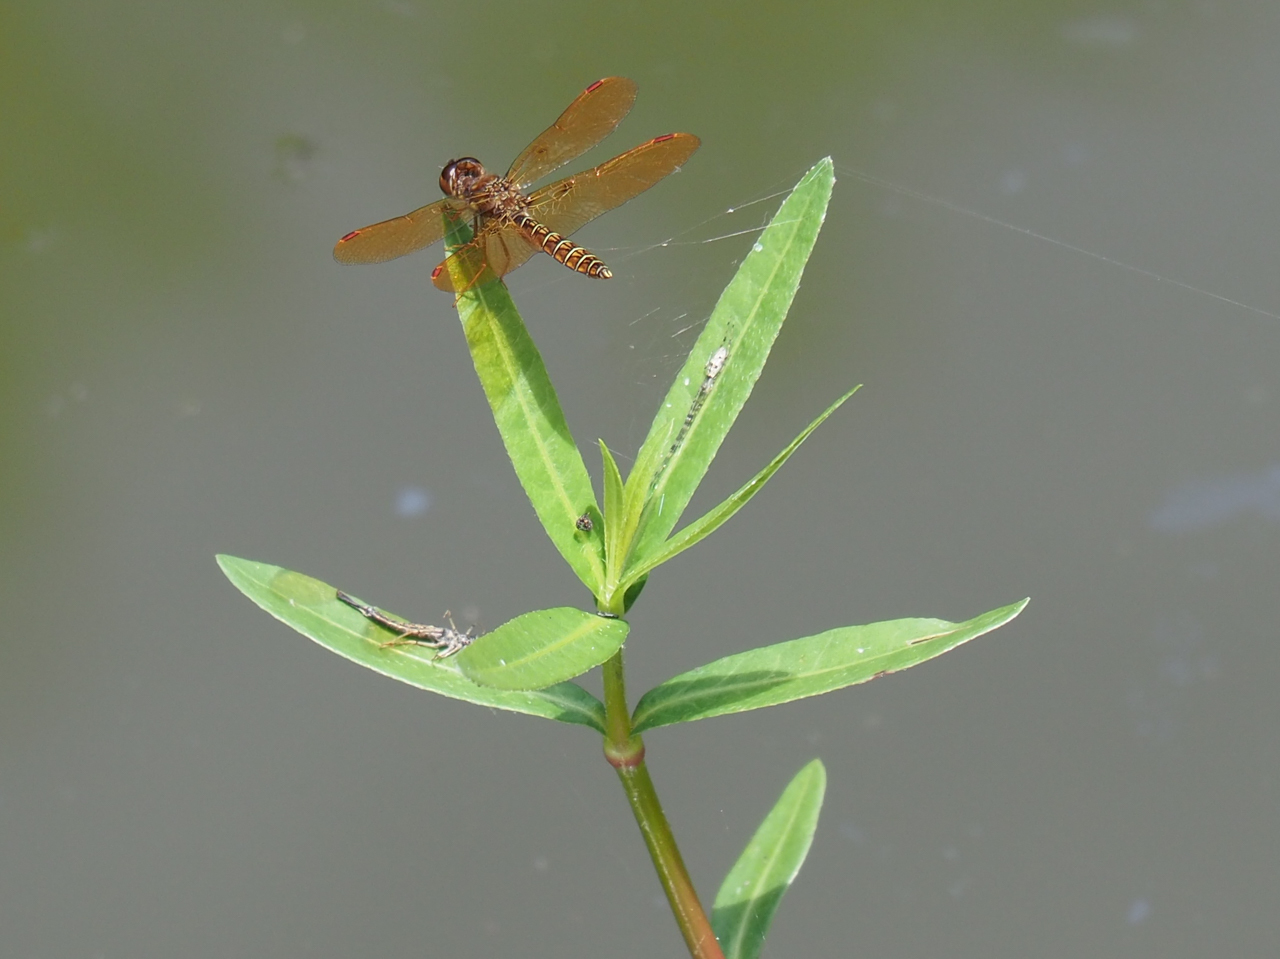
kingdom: Animalia
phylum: Arthropoda
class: Insecta
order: Odonata
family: Libellulidae
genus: Perithemis
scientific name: Perithemis tenera
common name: Eastern amberwing
